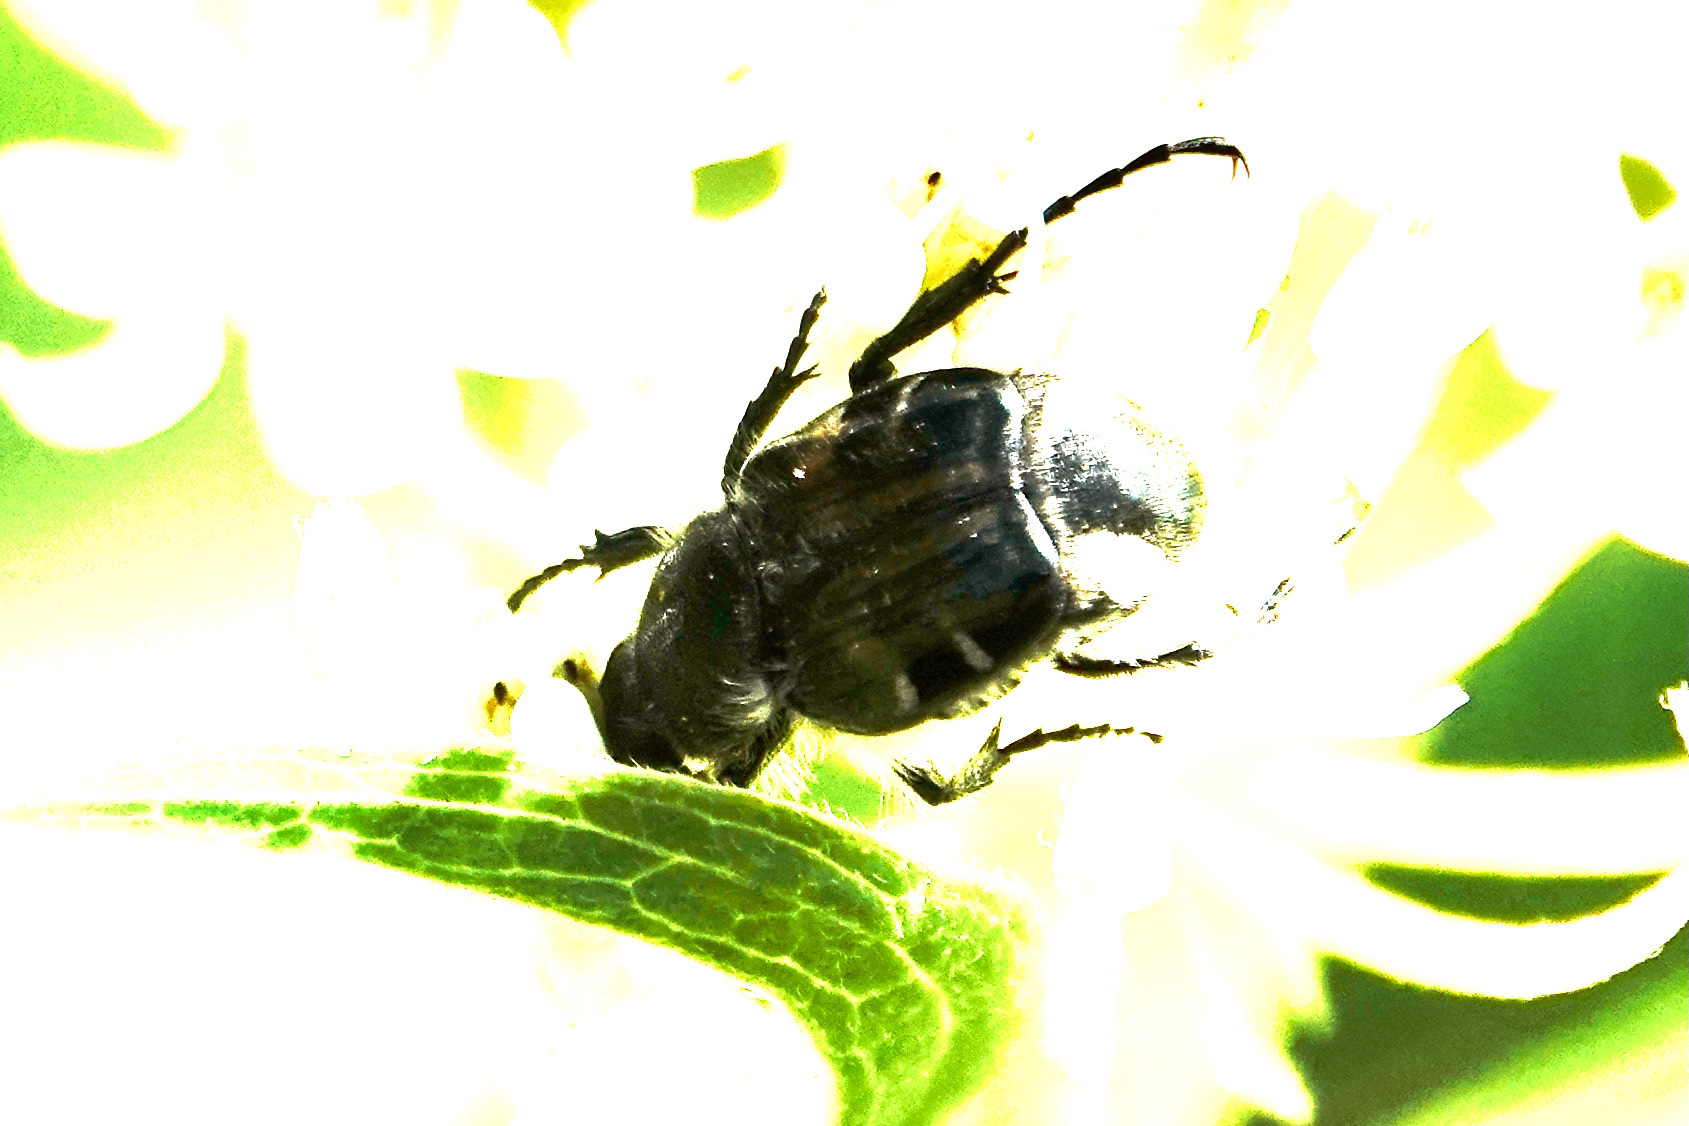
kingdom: Animalia
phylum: Arthropoda
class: Insecta
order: Coleoptera
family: Scarabaeidae
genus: Trichiotinus
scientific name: Trichiotinus affinis
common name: Hairy flower scarab
